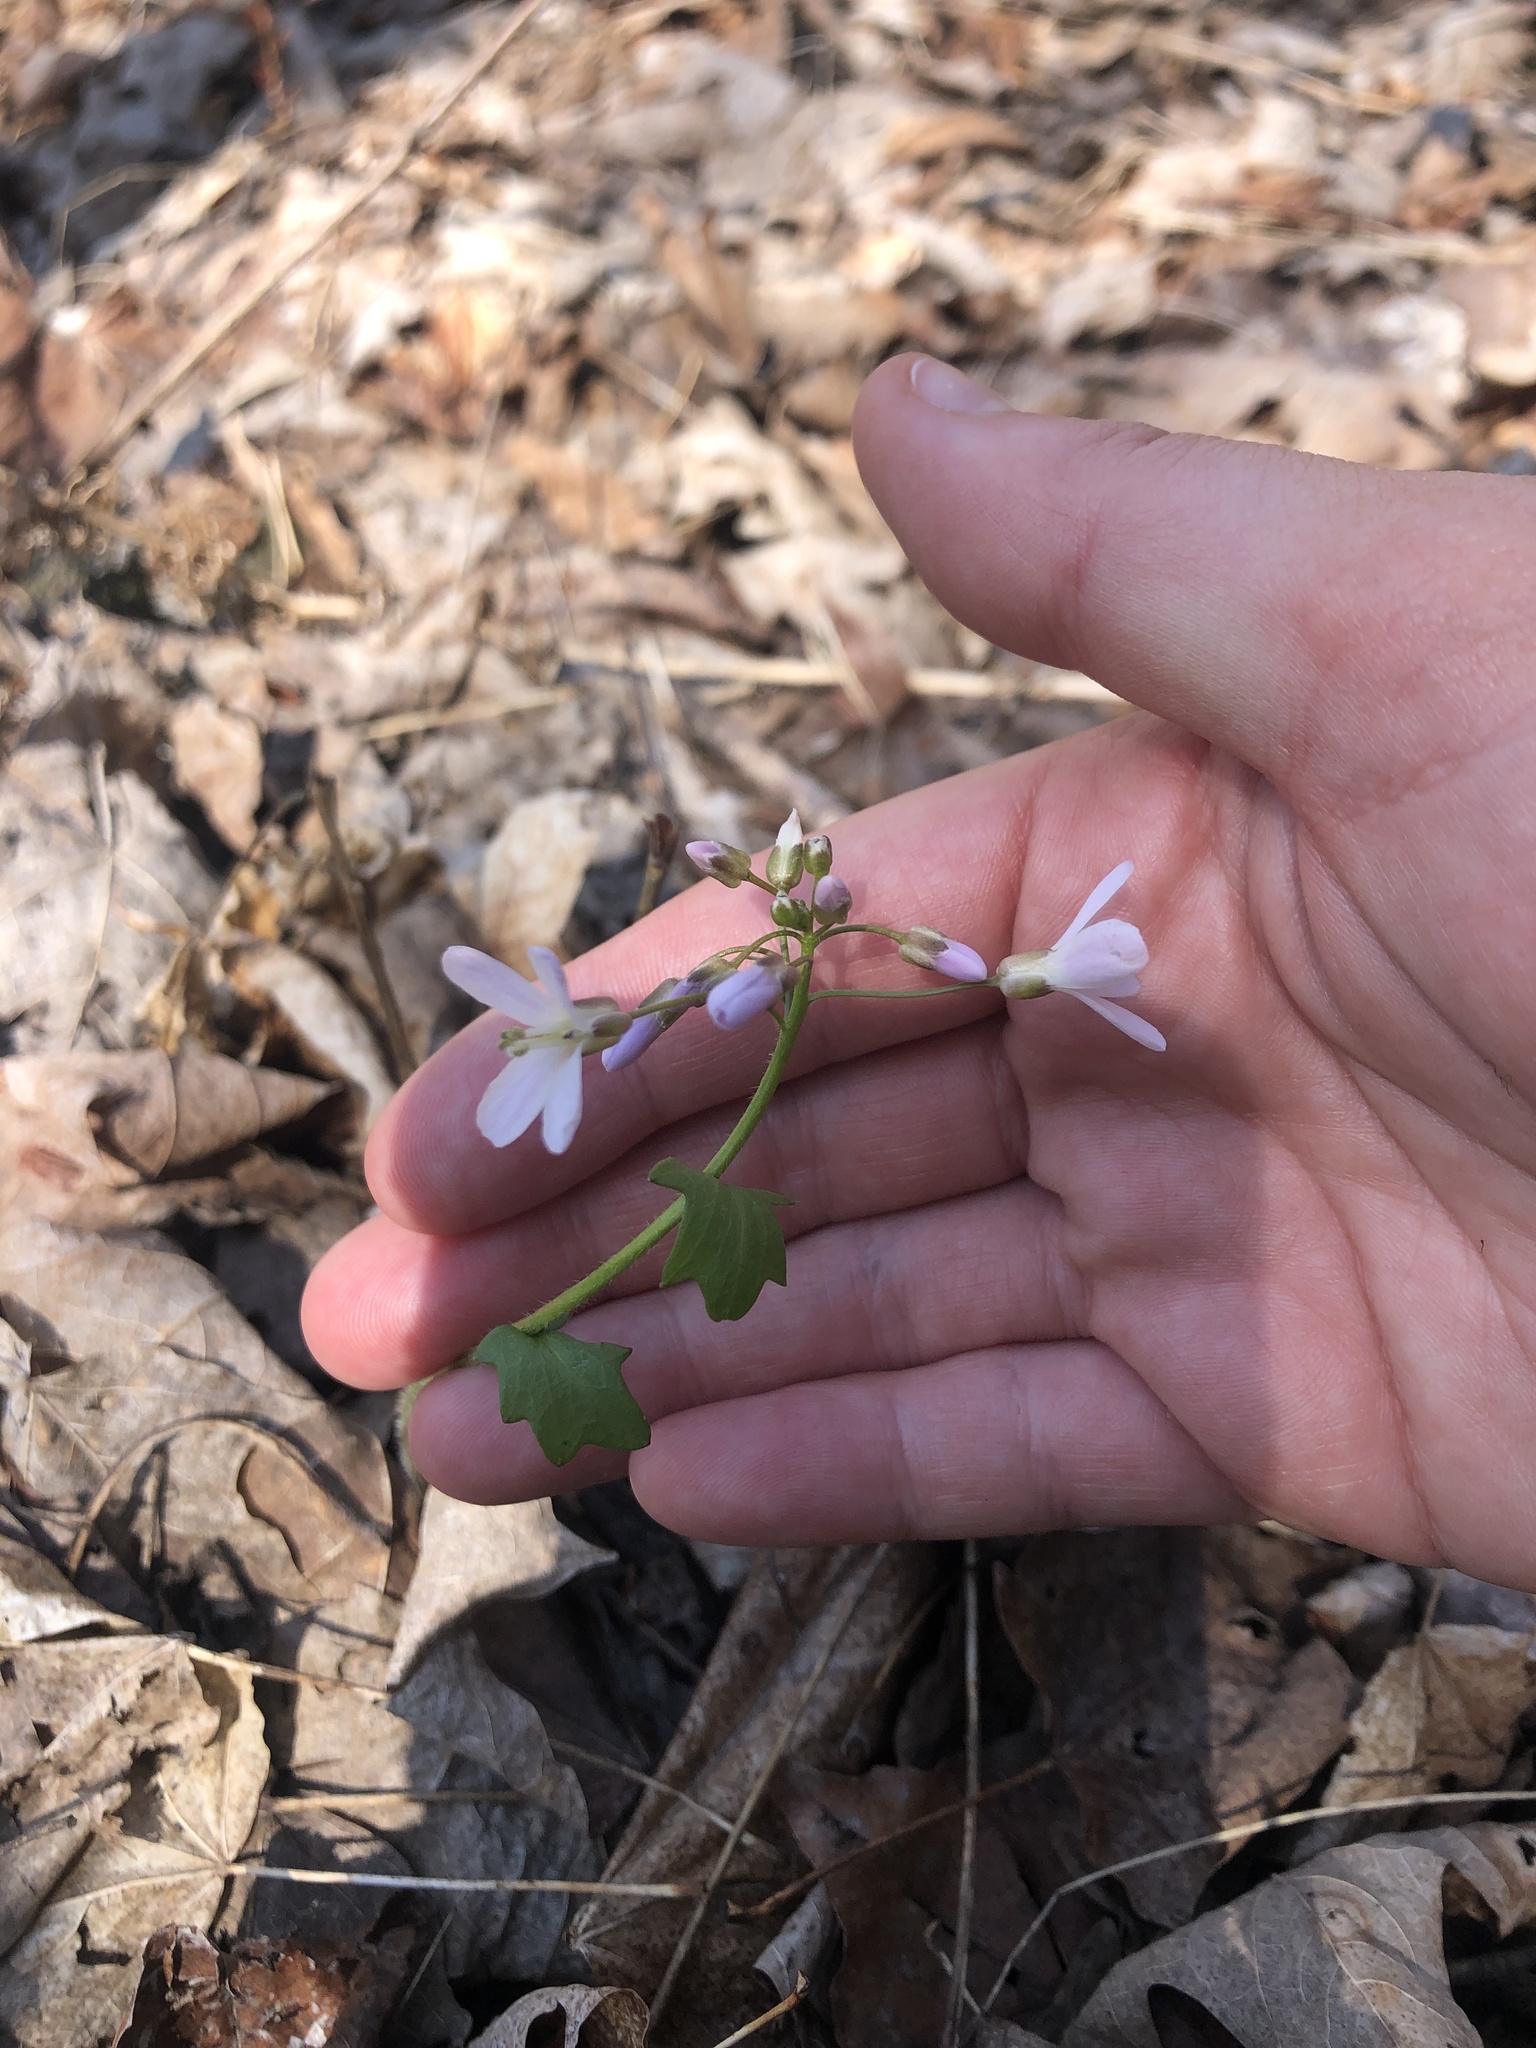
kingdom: Plantae
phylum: Tracheophyta
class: Magnoliopsida
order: Brassicales
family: Brassicaceae
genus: Cardamine
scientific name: Cardamine douglassii
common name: Purple cress
